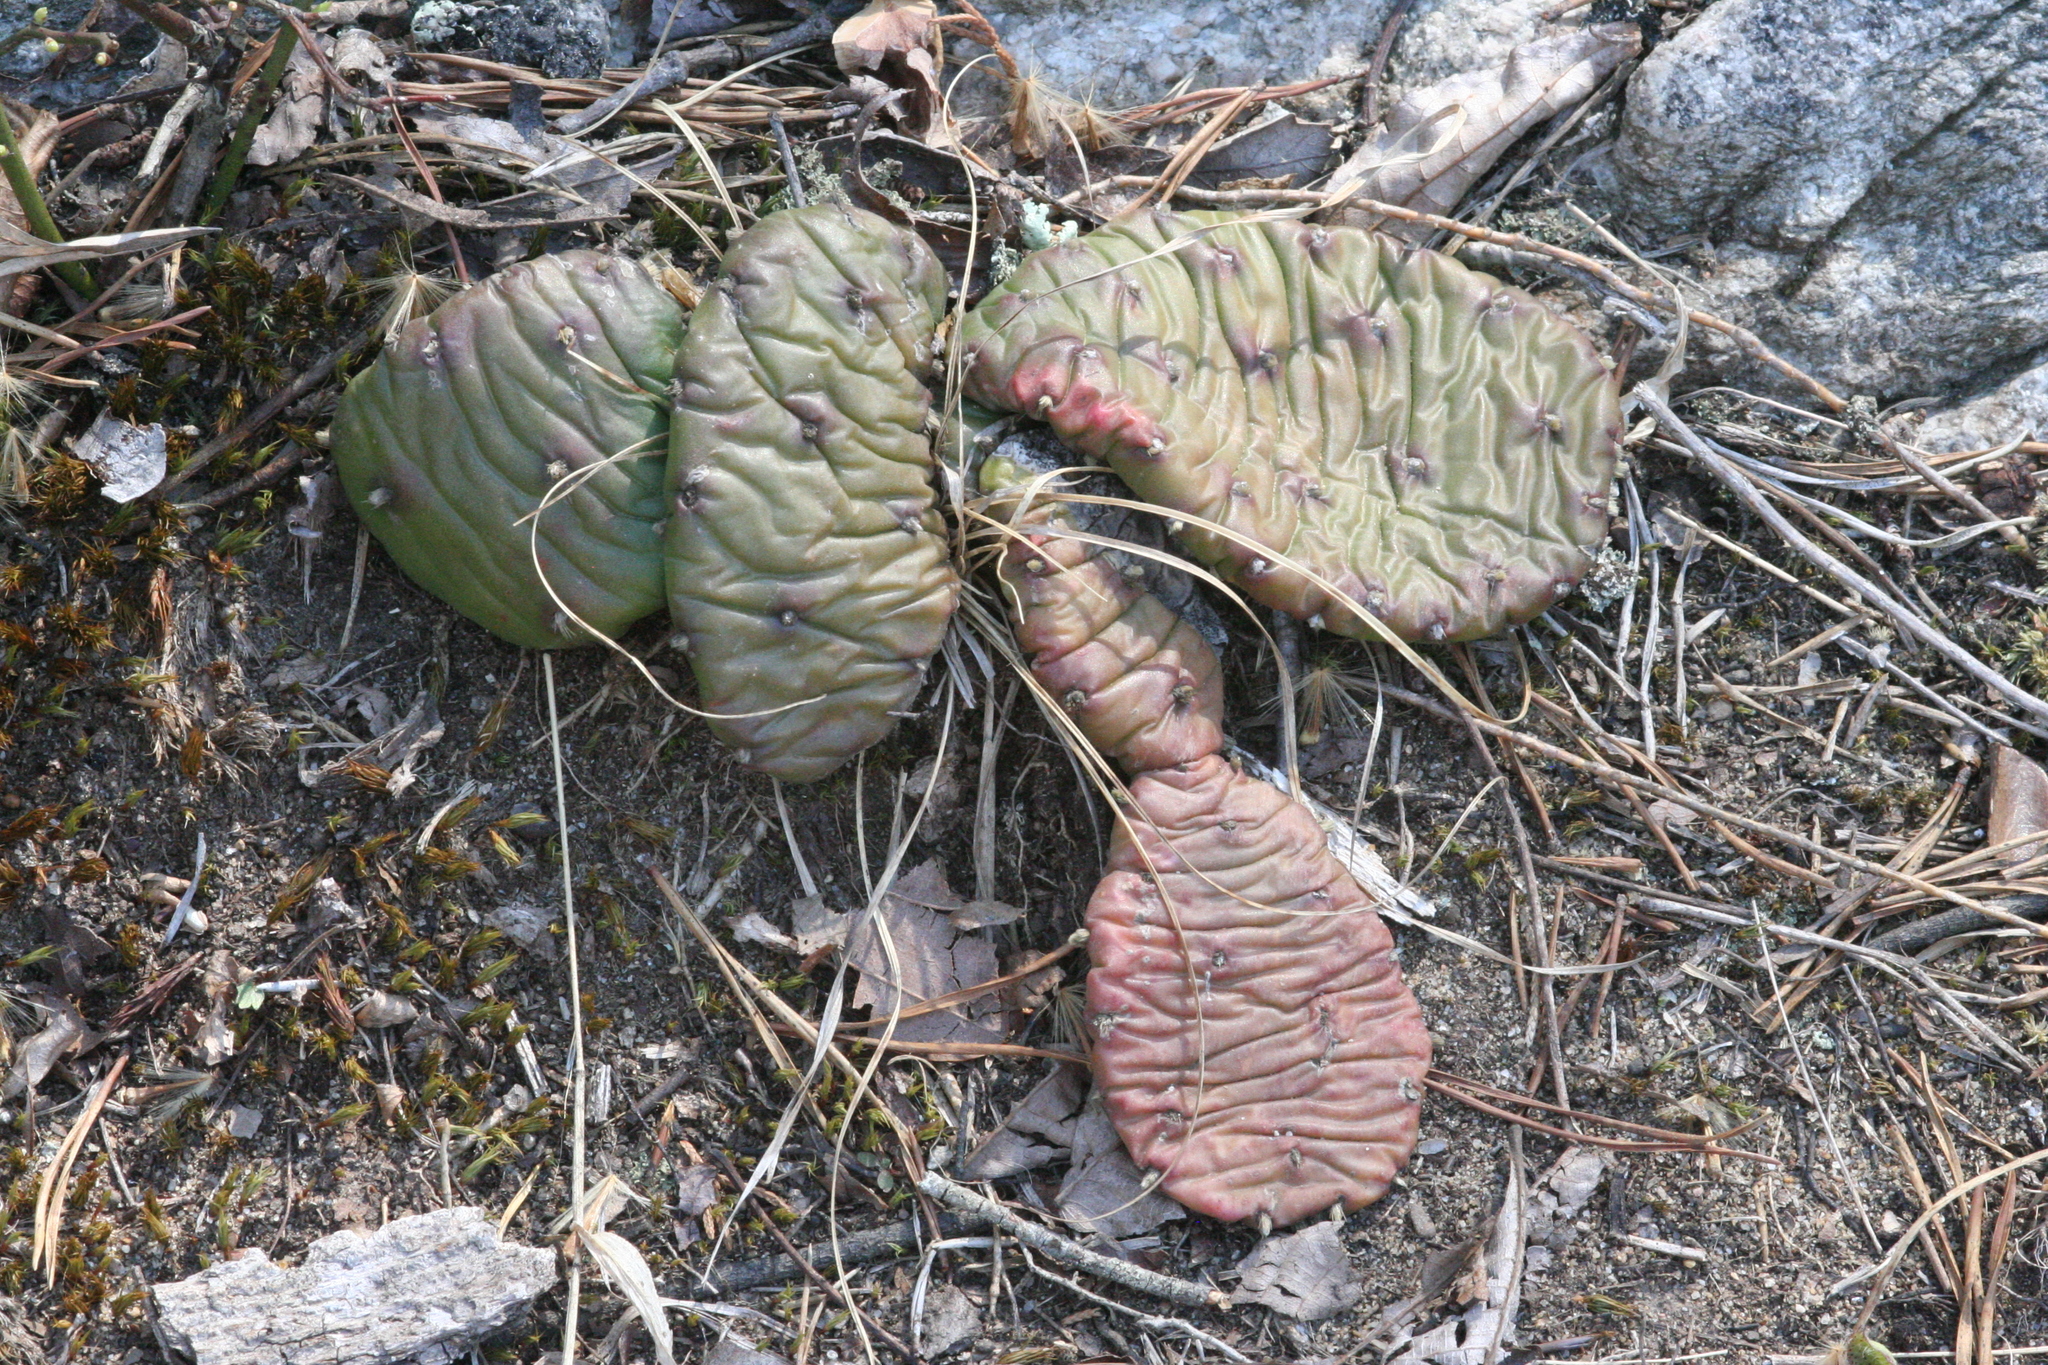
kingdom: Plantae
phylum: Tracheophyta
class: Magnoliopsida
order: Caryophyllales
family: Cactaceae
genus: Opuntia
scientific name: Opuntia humifusa
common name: Eastern prickly-pear
